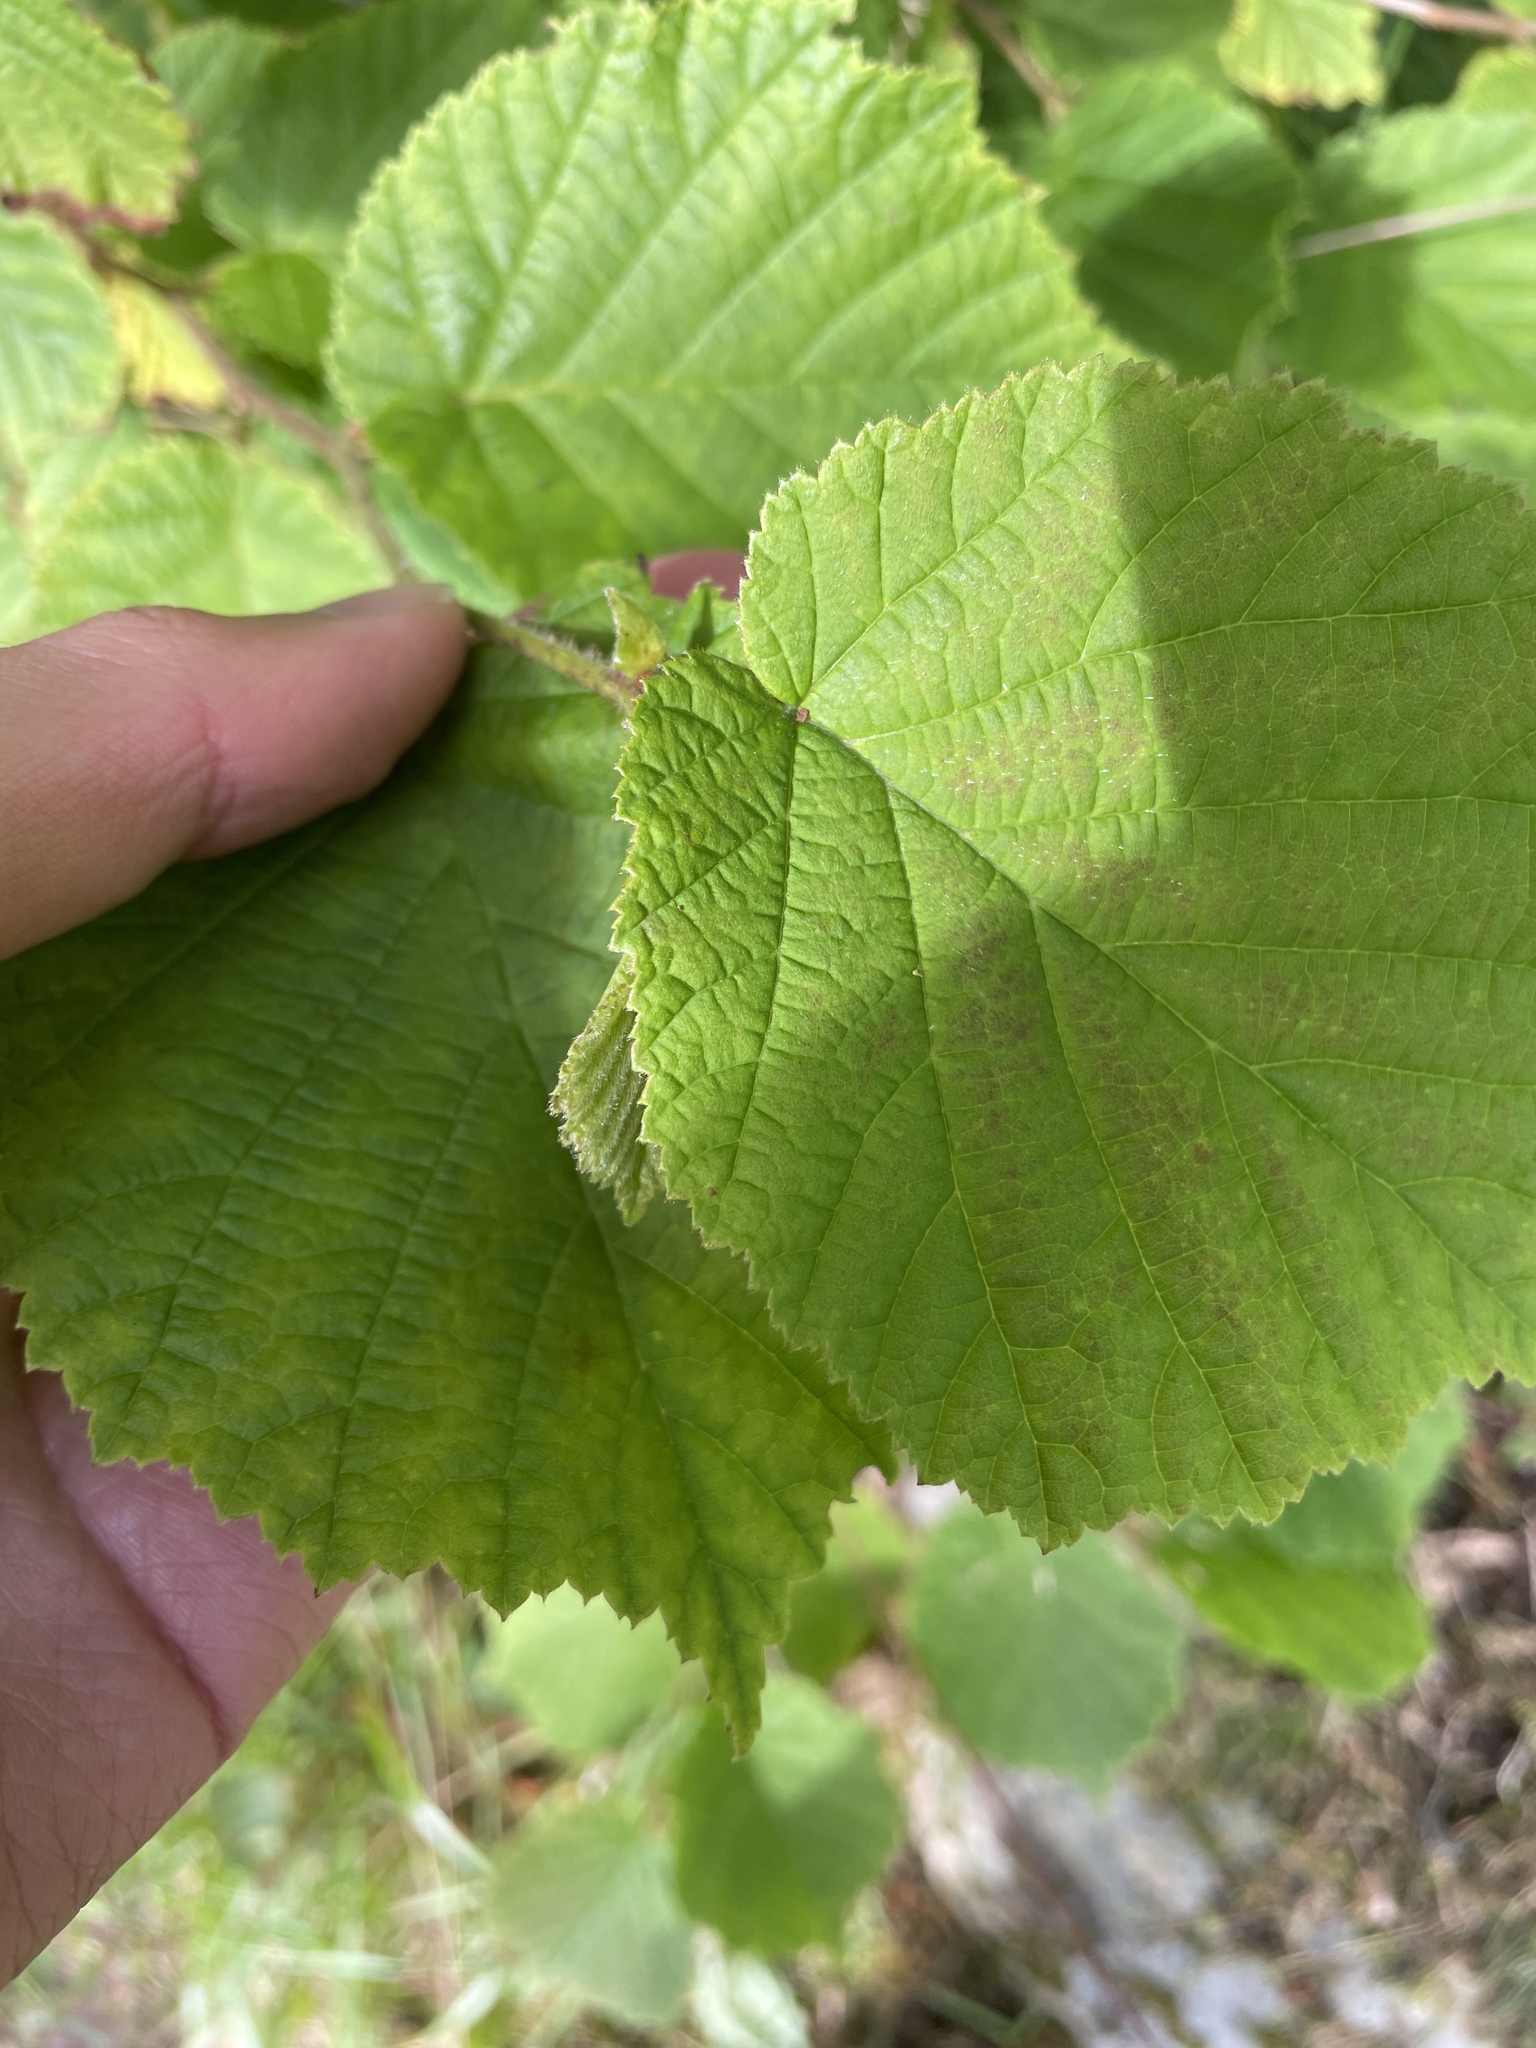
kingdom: Plantae
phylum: Tracheophyta
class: Magnoliopsida
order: Fagales
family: Betulaceae
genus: Corylus
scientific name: Corylus avellana
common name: European hazel
